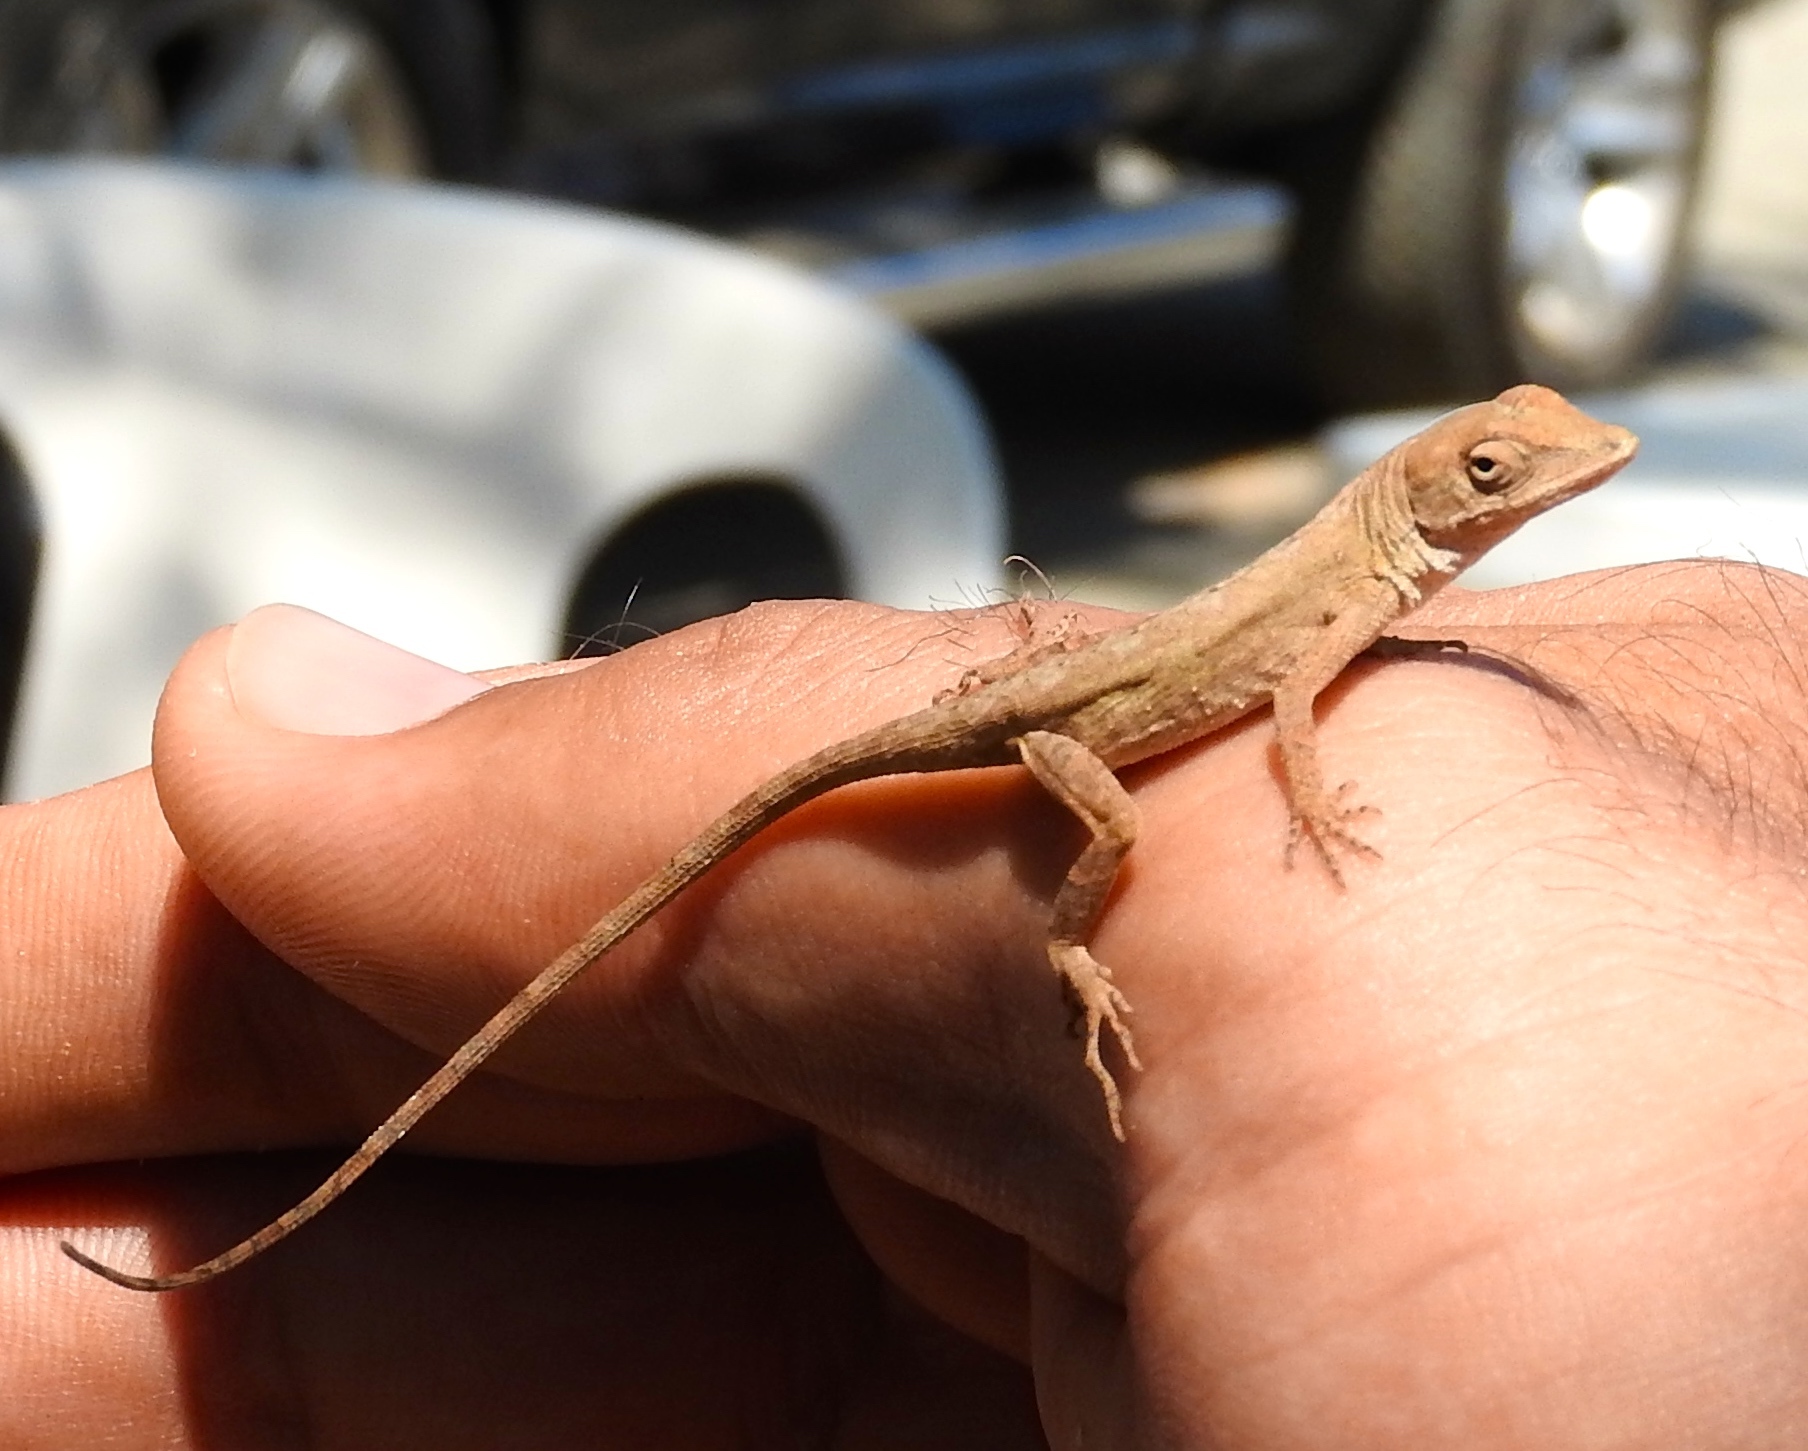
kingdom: Animalia
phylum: Chordata
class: Squamata
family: Dactyloidae
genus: Anolis
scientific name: Anolis nebulosus
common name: Clouded anole
